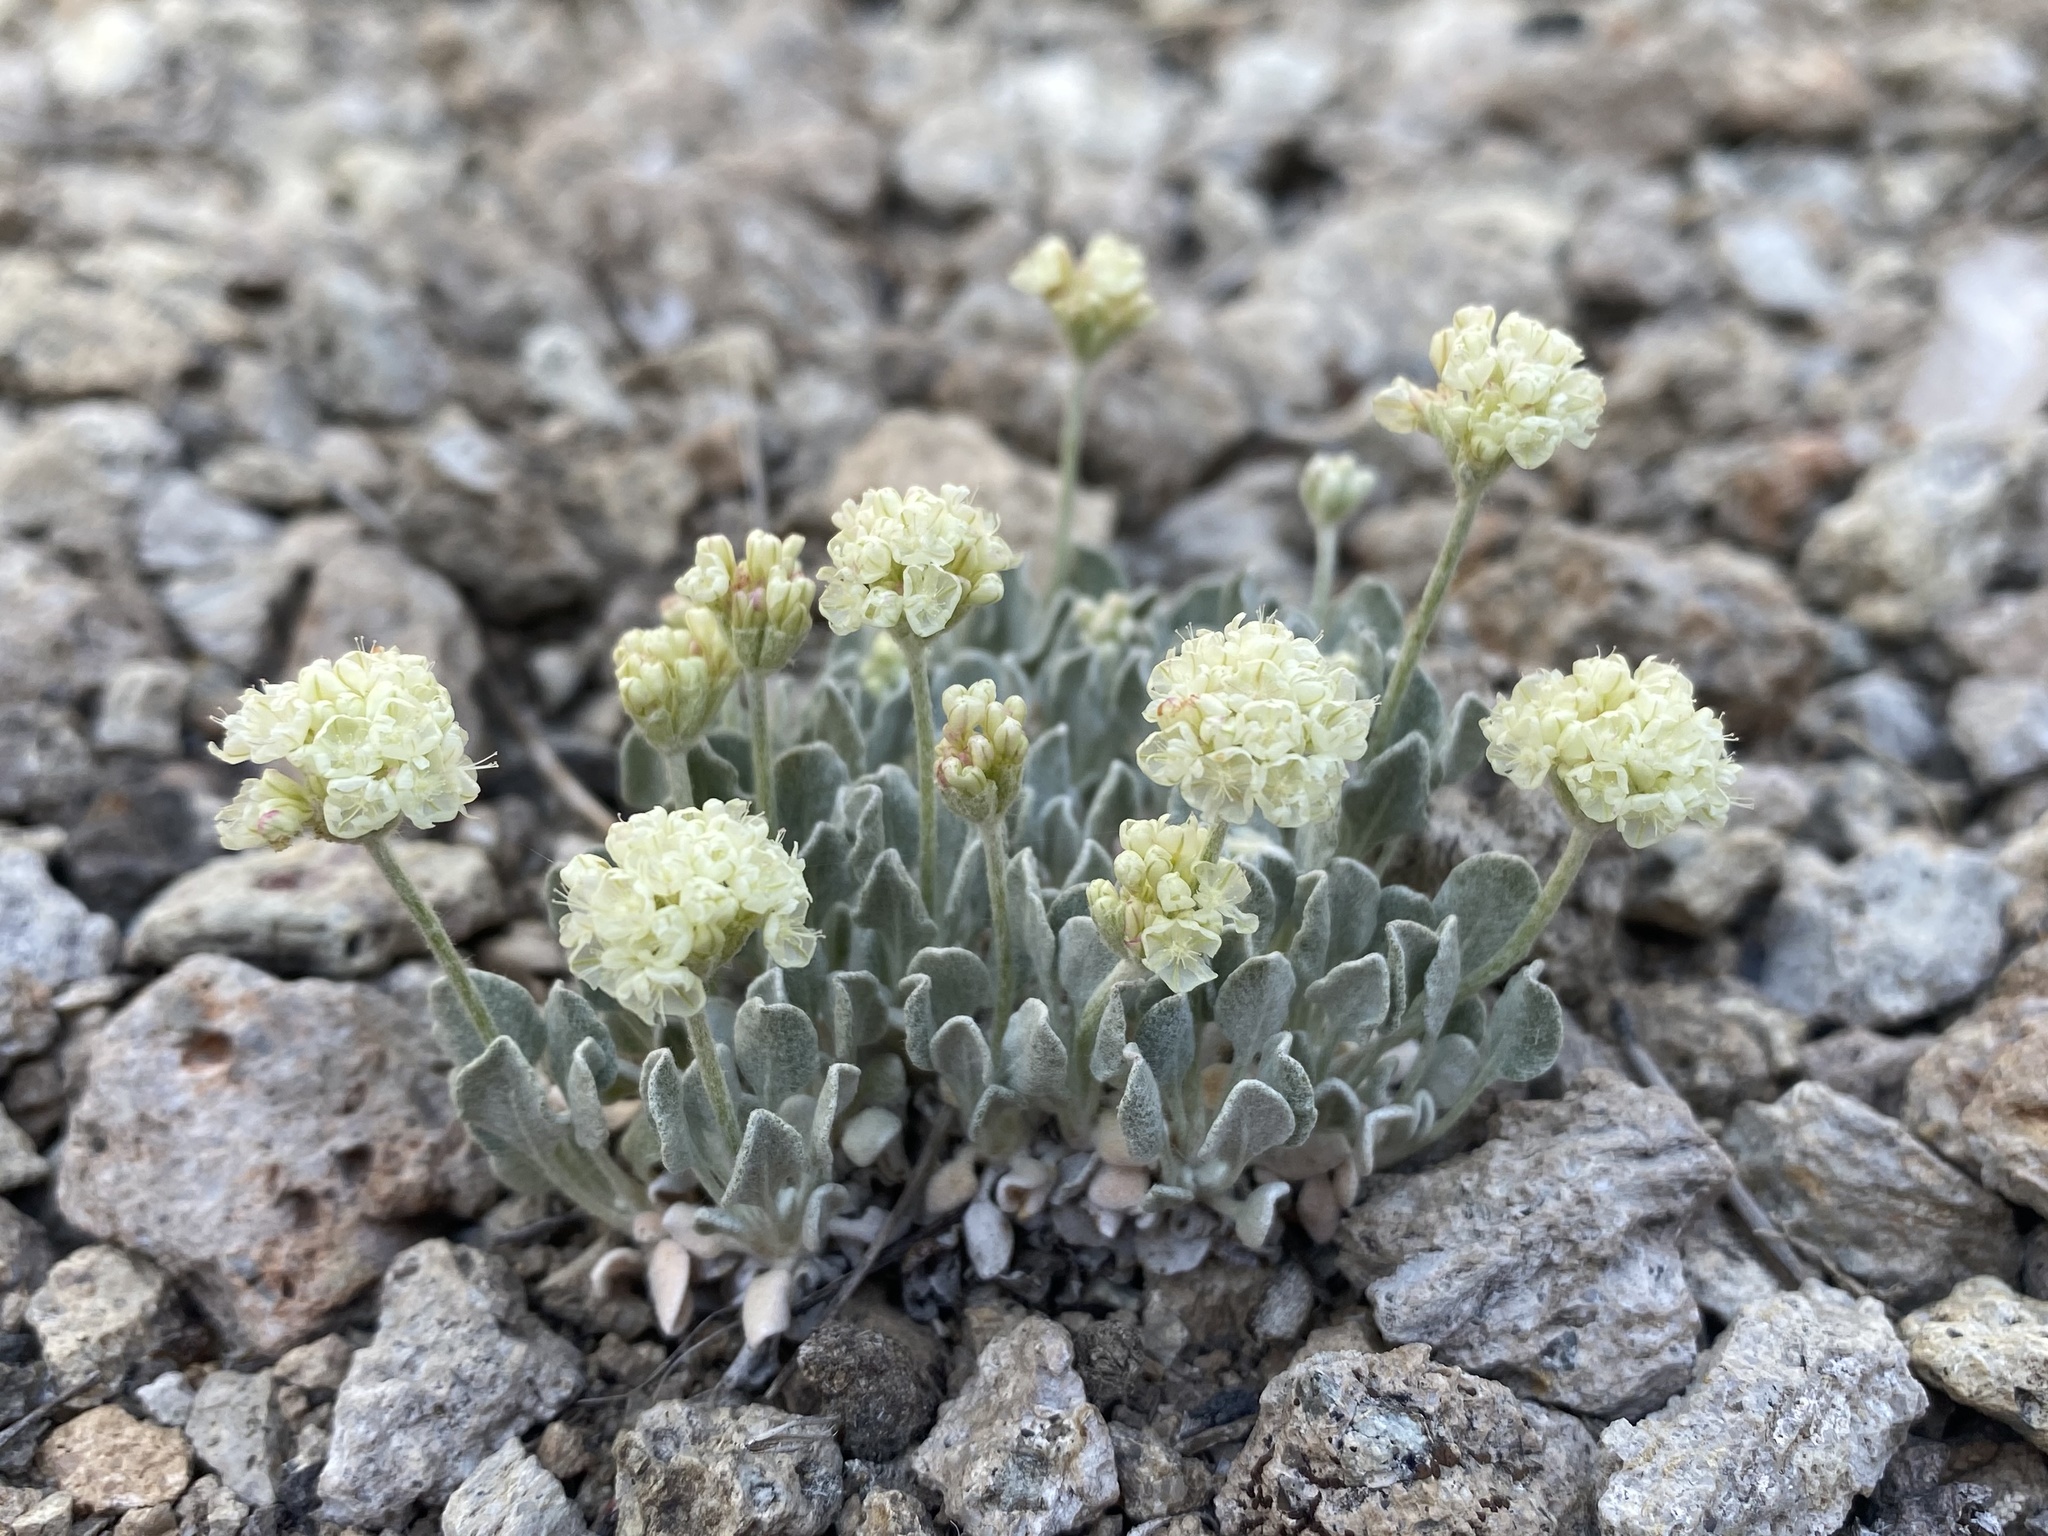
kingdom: Plantae
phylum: Tracheophyta
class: Magnoliopsida
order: Caryophyllales
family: Polygonaceae
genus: Eriogonum
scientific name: Eriogonum ovalifolium
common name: Cushion buckwheat
